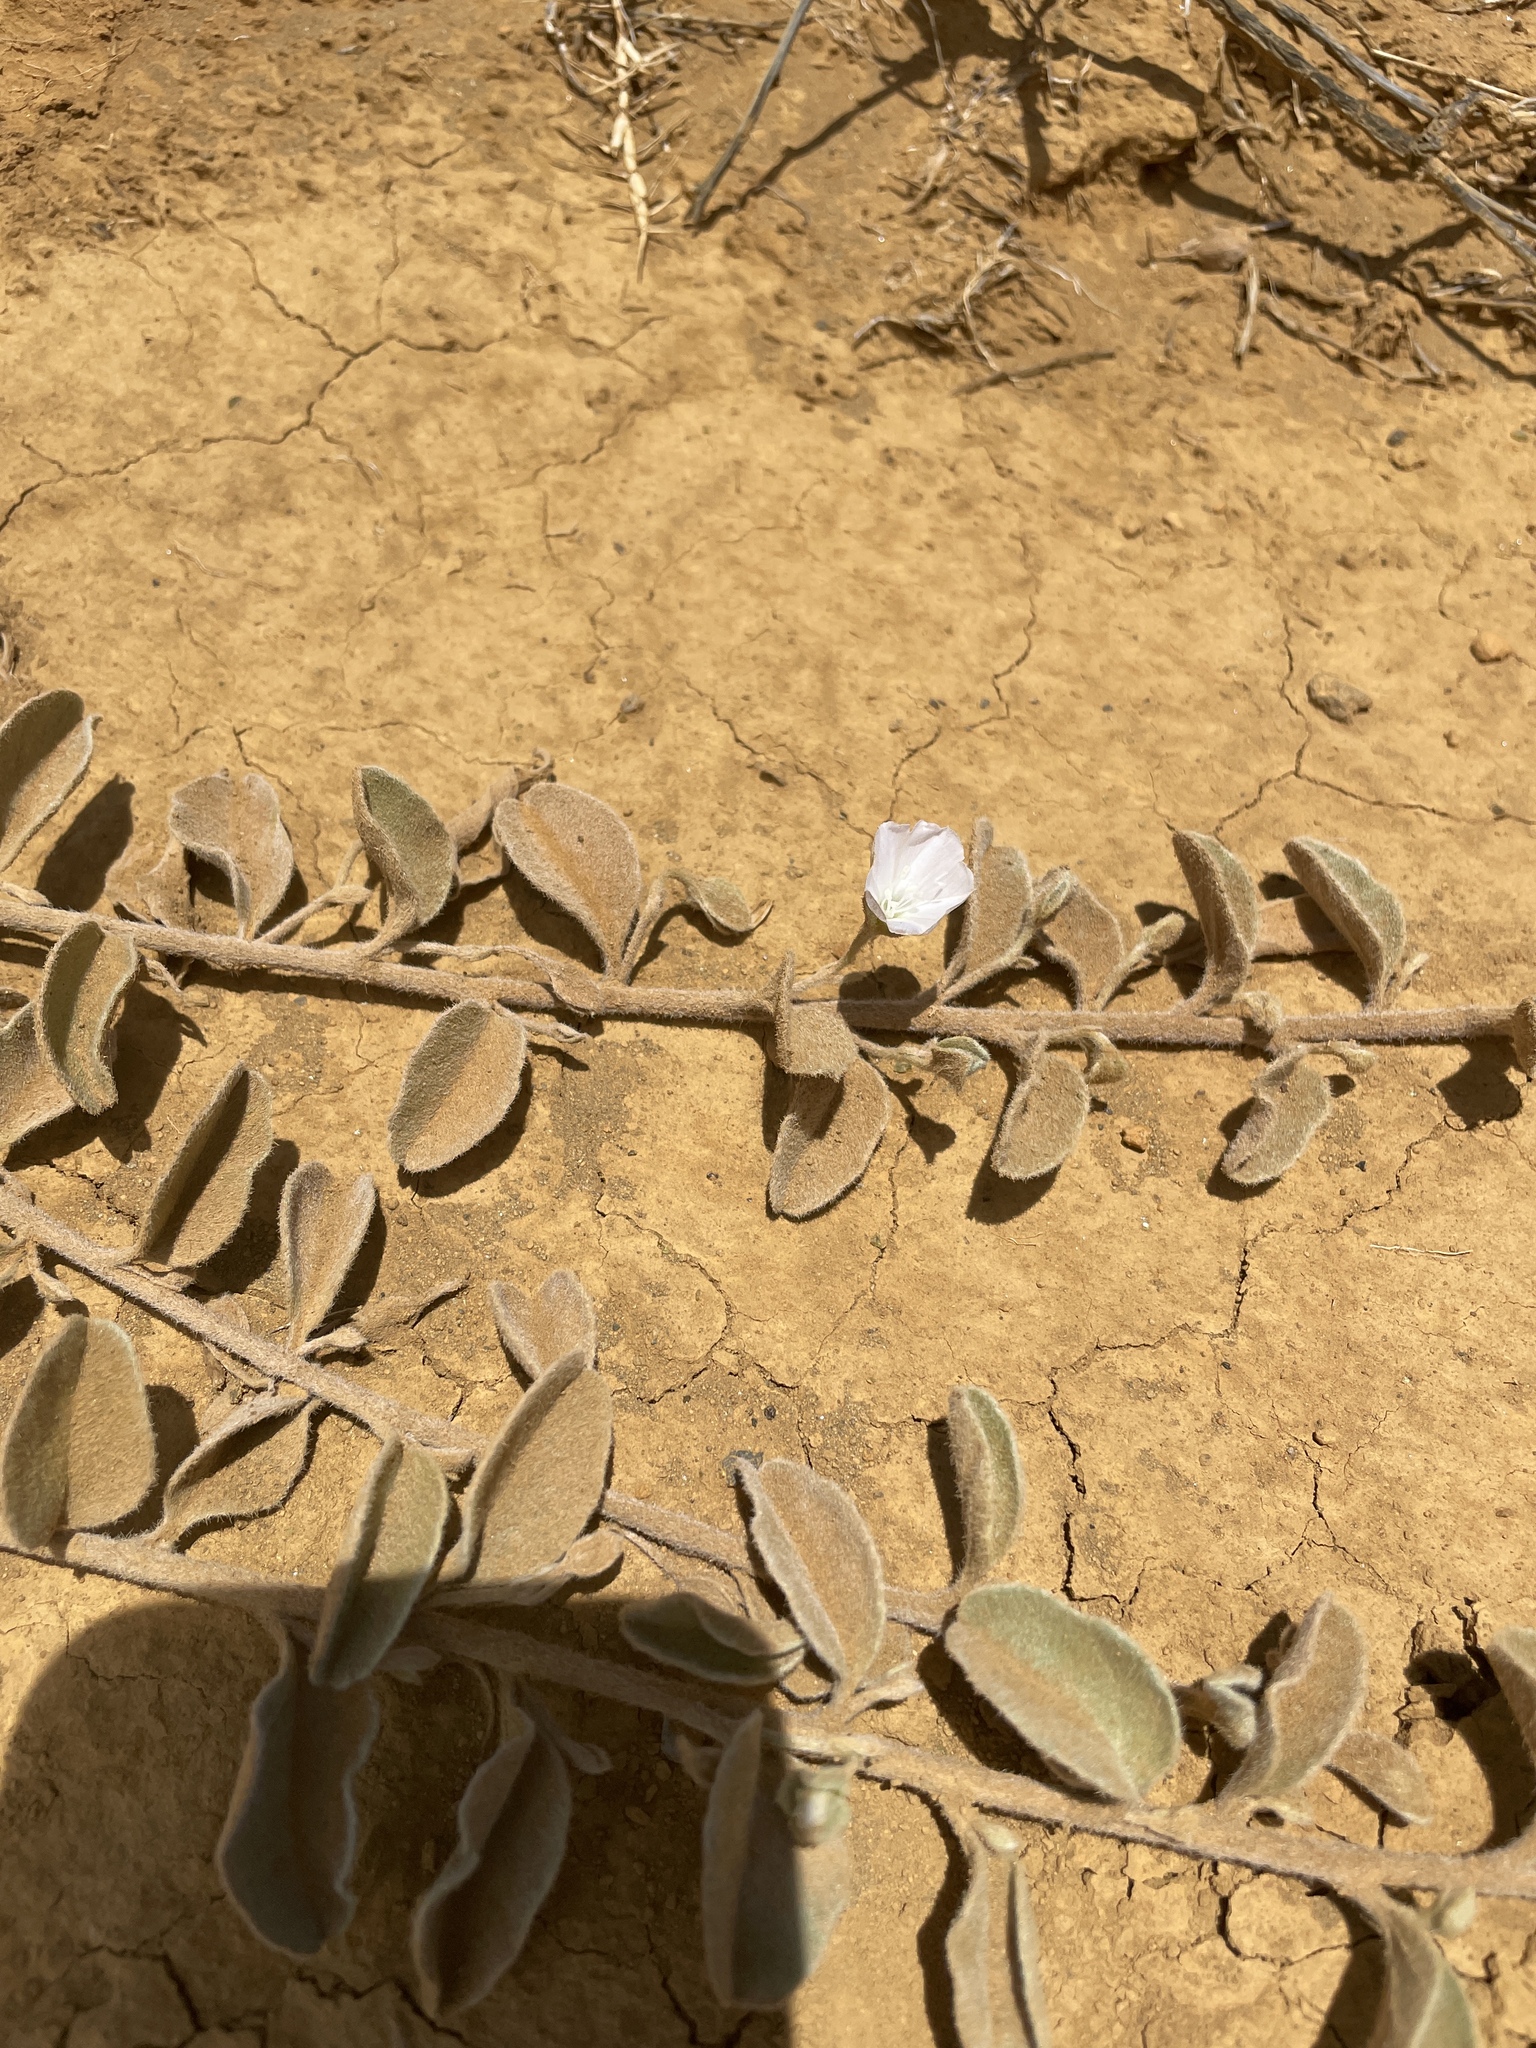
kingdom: Plantae
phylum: Tracheophyta
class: Magnoliopsida
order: Solanales
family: Convolvulaceae
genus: Jacquemontia
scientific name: Jacquemontia sandwicensis
